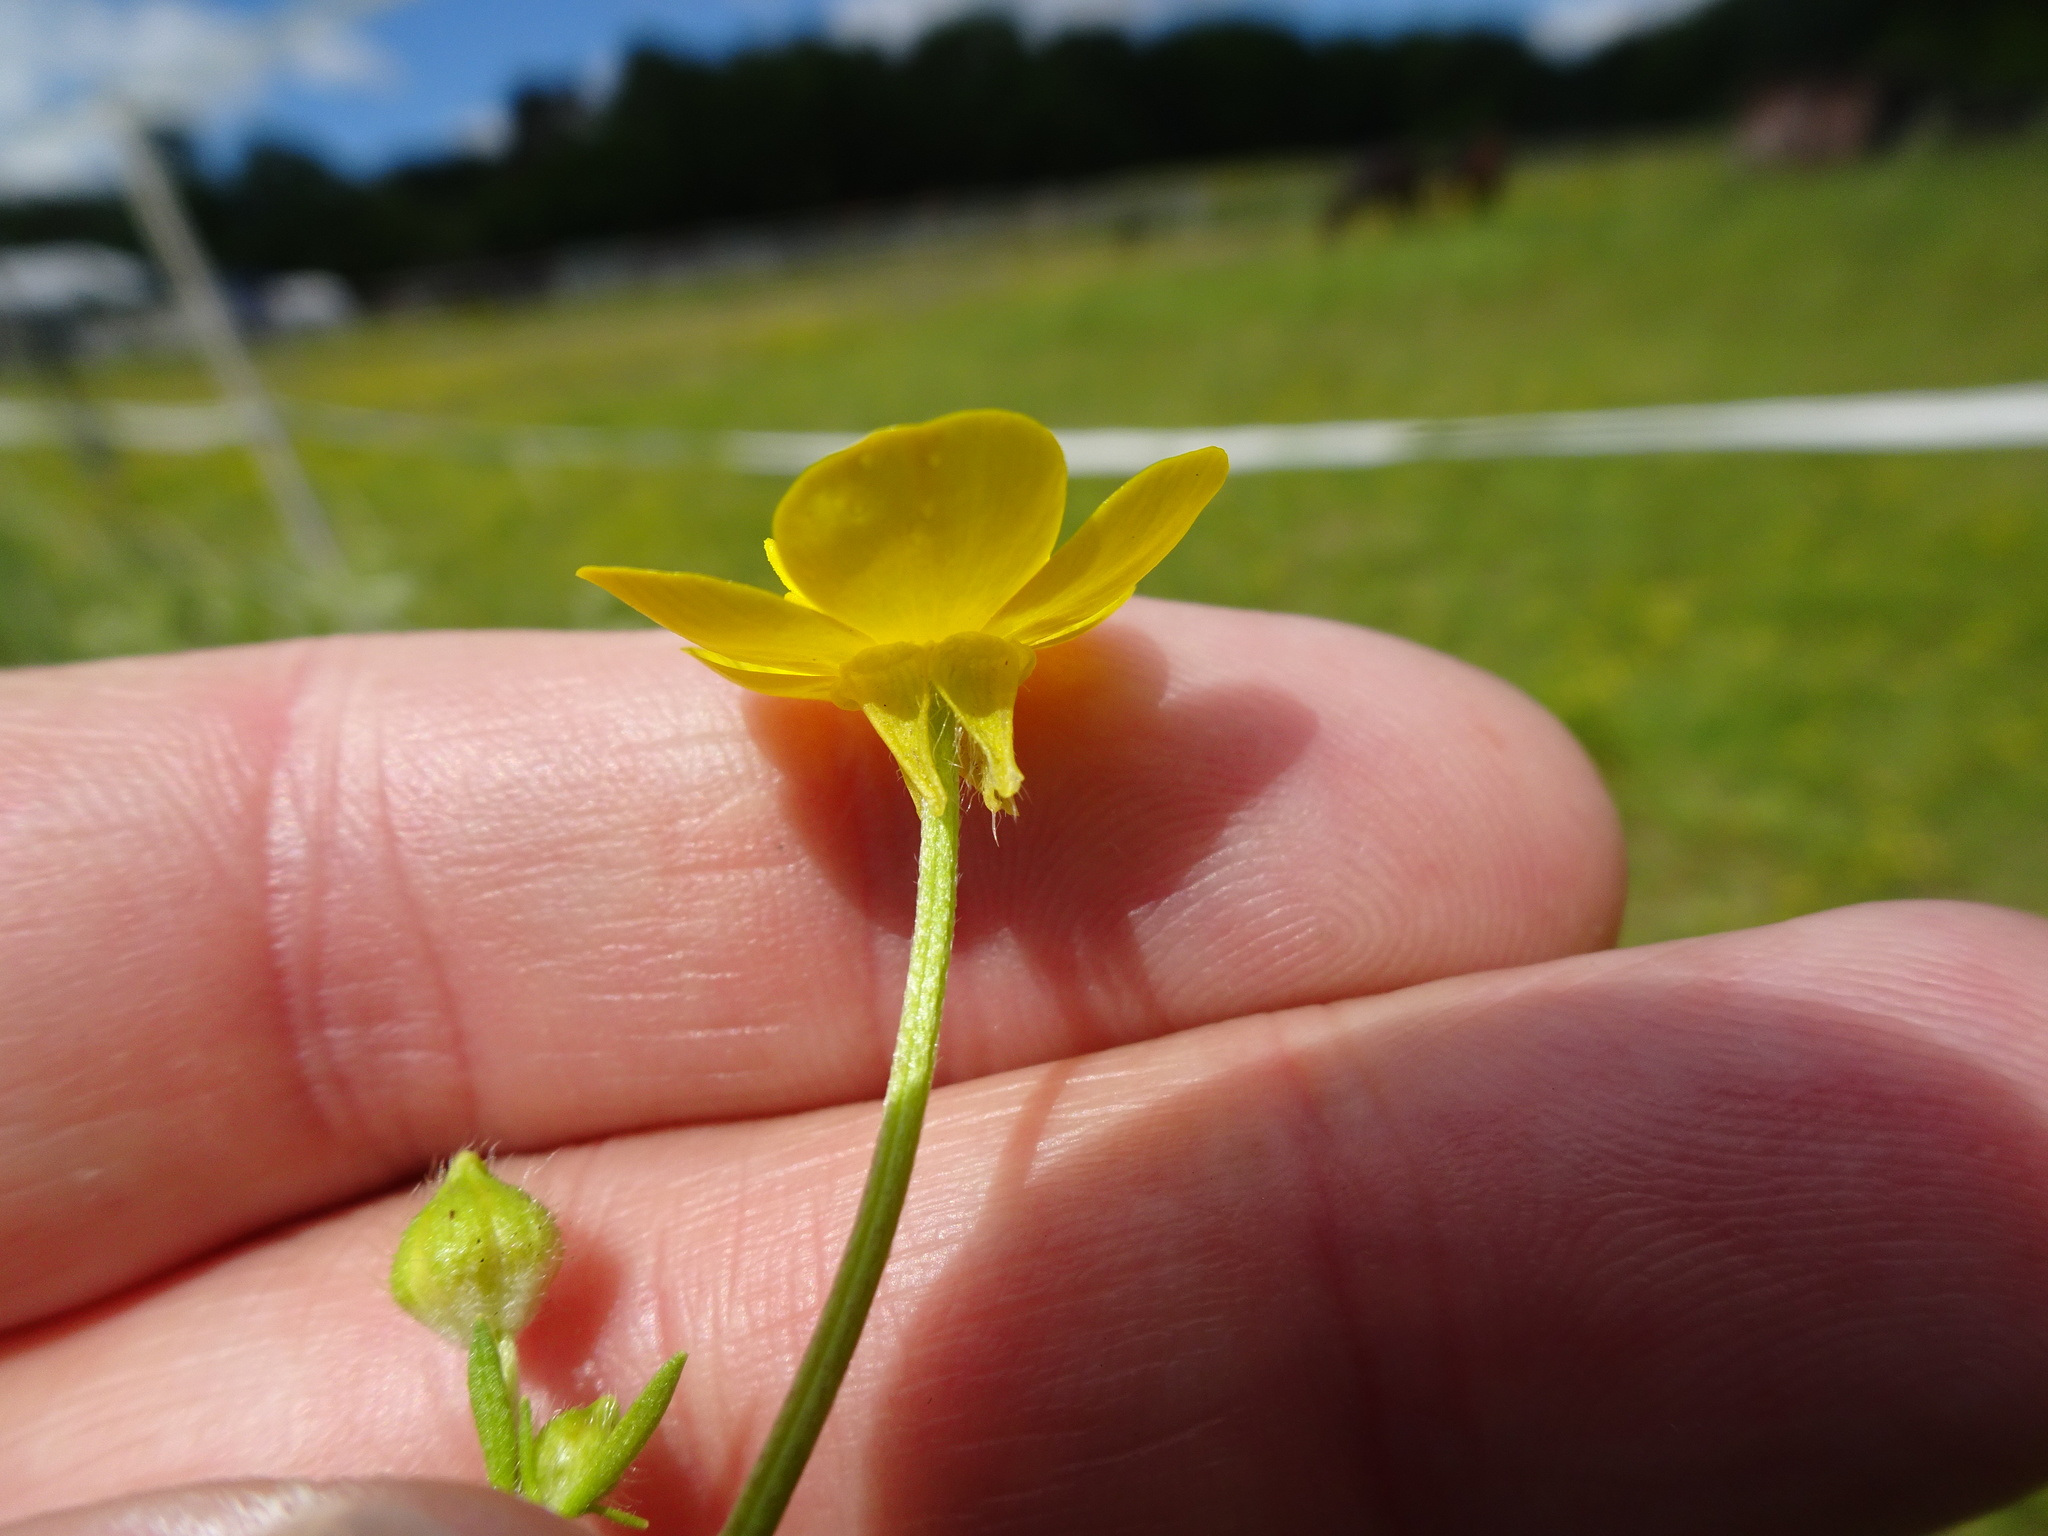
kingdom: Plantae
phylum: Tracheophyta
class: Magnoliopsida
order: Ranunculales
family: Ranunculaceae
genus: Ranunculus
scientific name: Ranunculus bulbosus
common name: Bulbous buttercup
